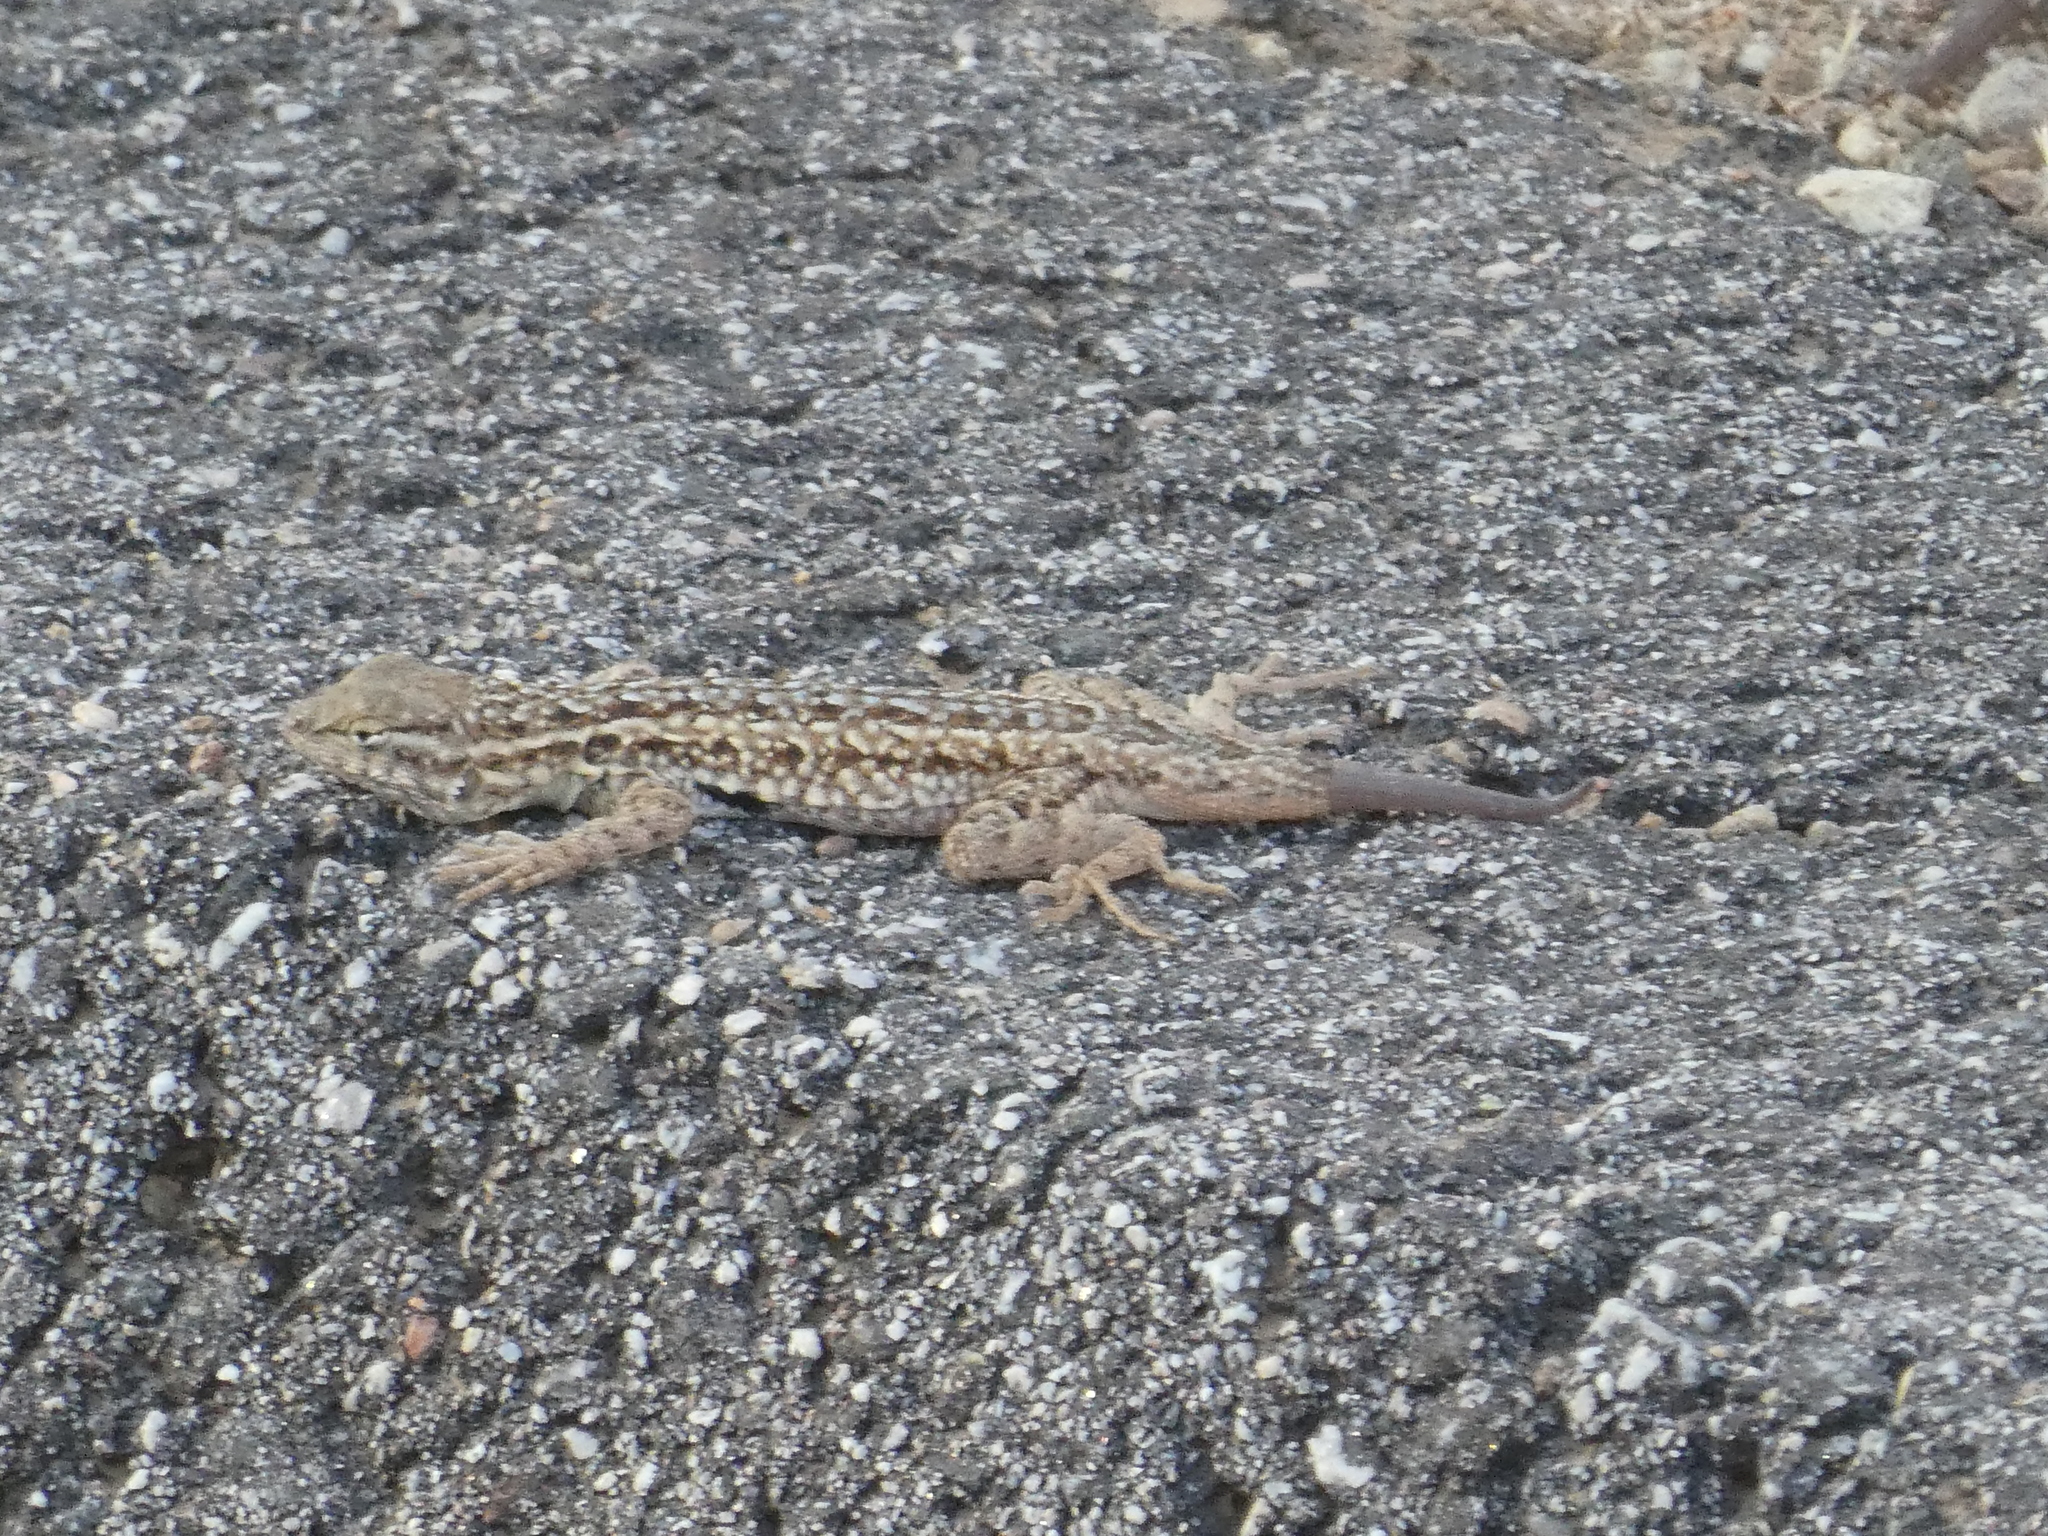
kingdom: Animalia
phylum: Chordata
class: Squamata
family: Phrynosomatidae
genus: Uta
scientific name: Uta stansburiana
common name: Side-blotched lizard
